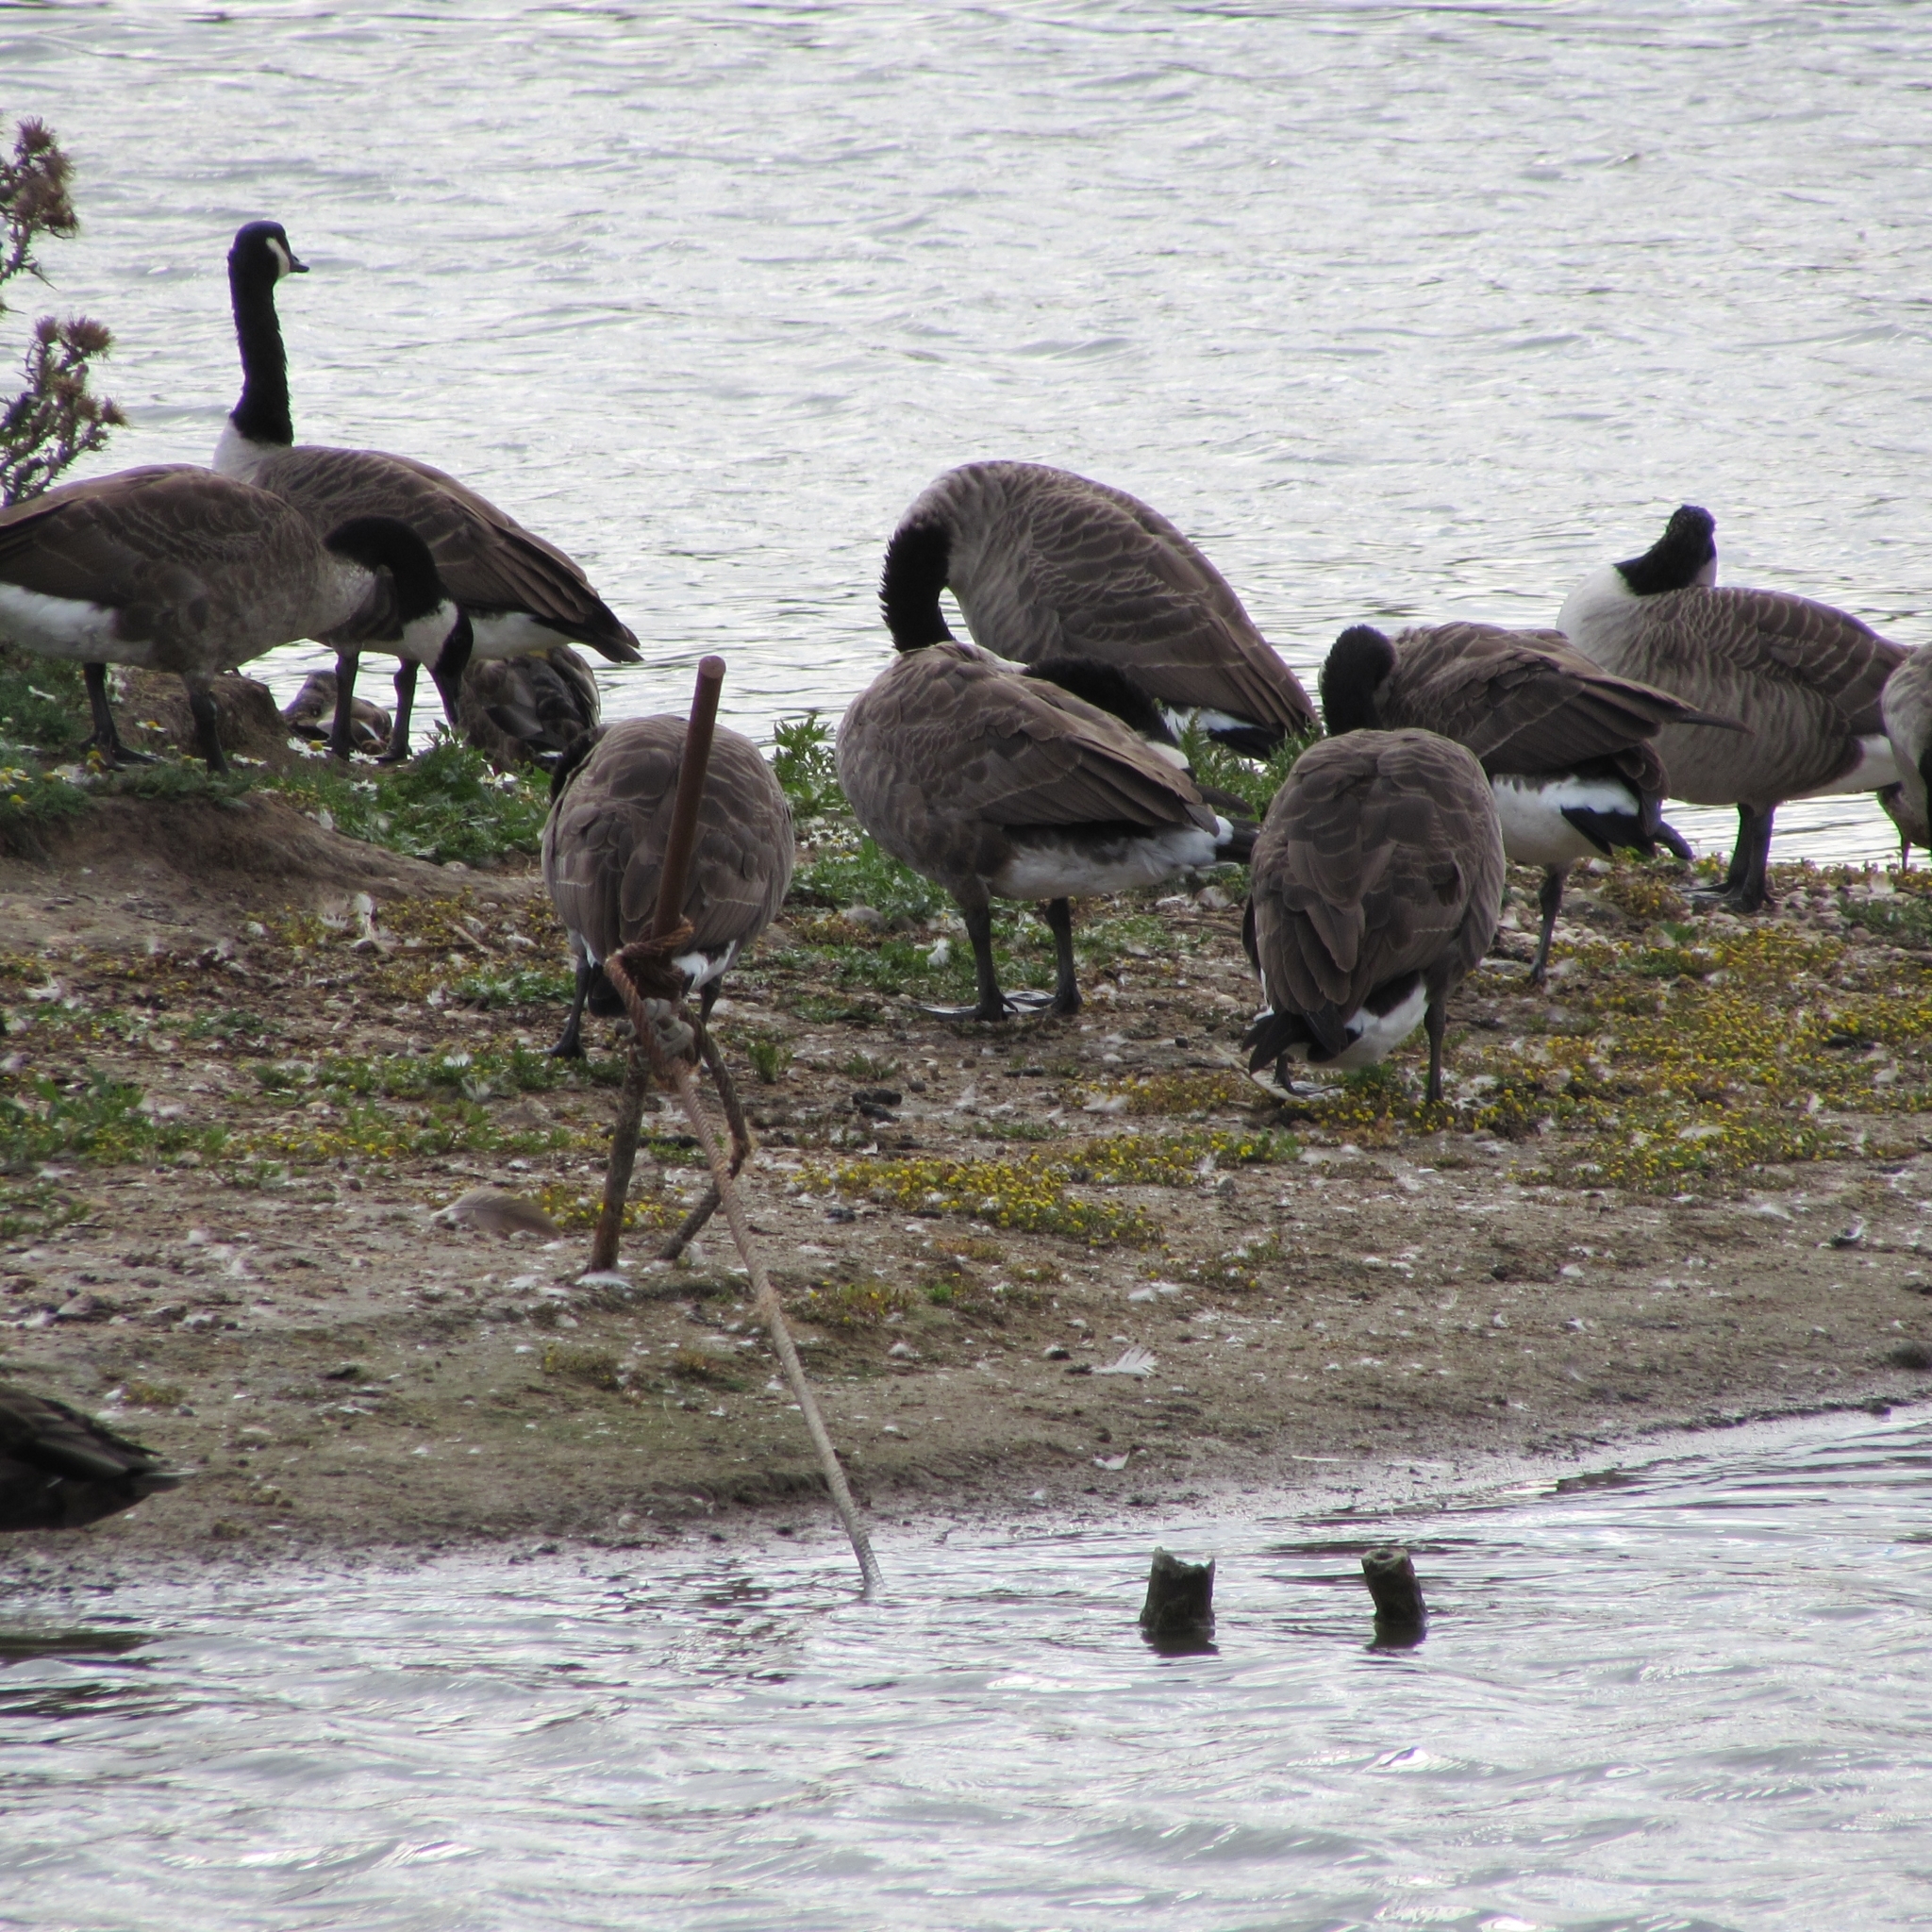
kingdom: Animalia
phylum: Chordata
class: Aves
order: Anseriformes
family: Anatidae
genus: Branta
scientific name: Branta canadensis
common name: Canada goose
